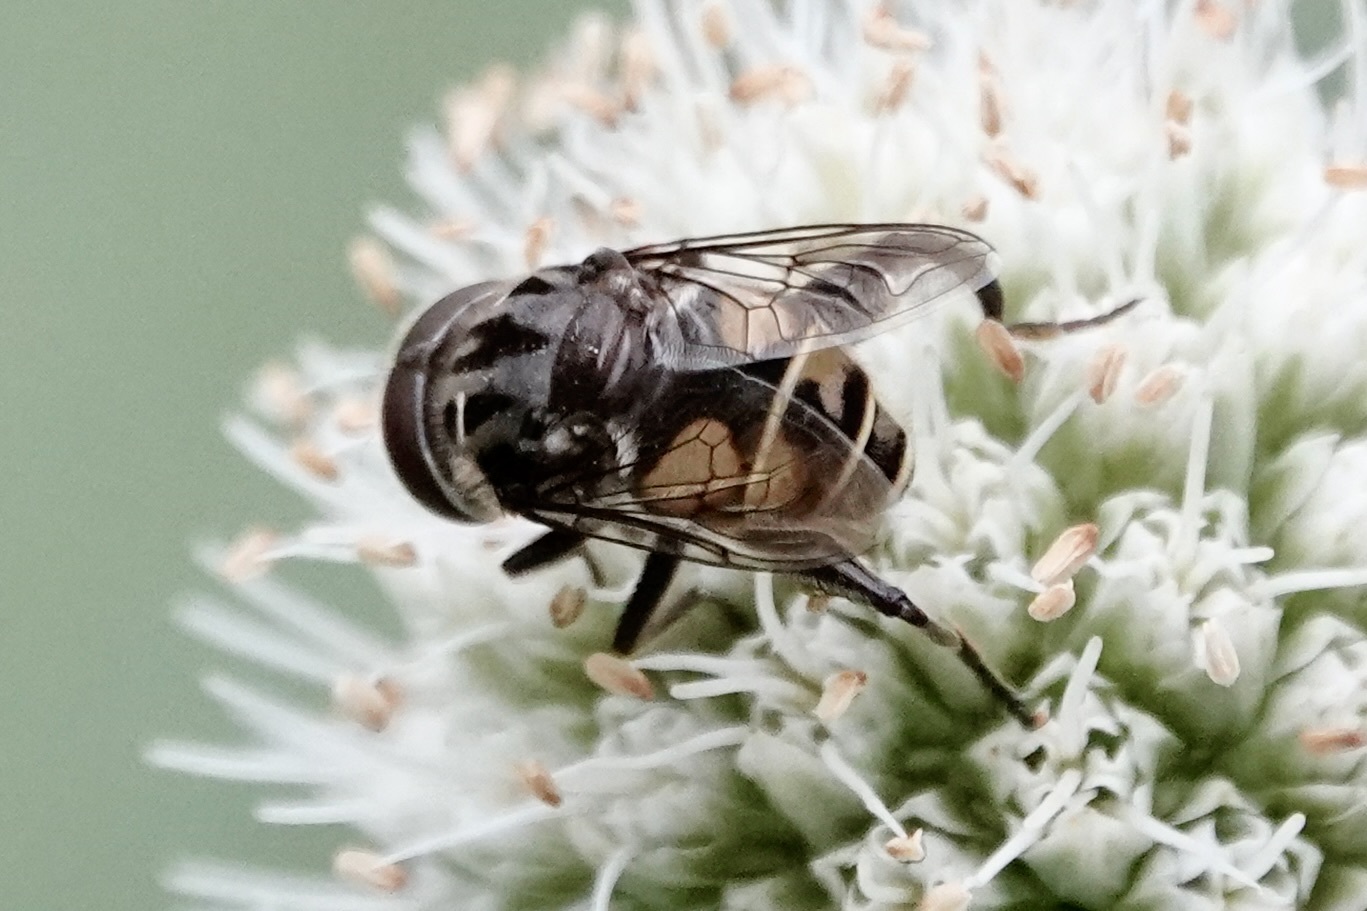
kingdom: Animalia
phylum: Arthropoda
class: Insecta
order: Diptera
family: Syrphidae
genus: Palpada
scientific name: Palpada furcata
